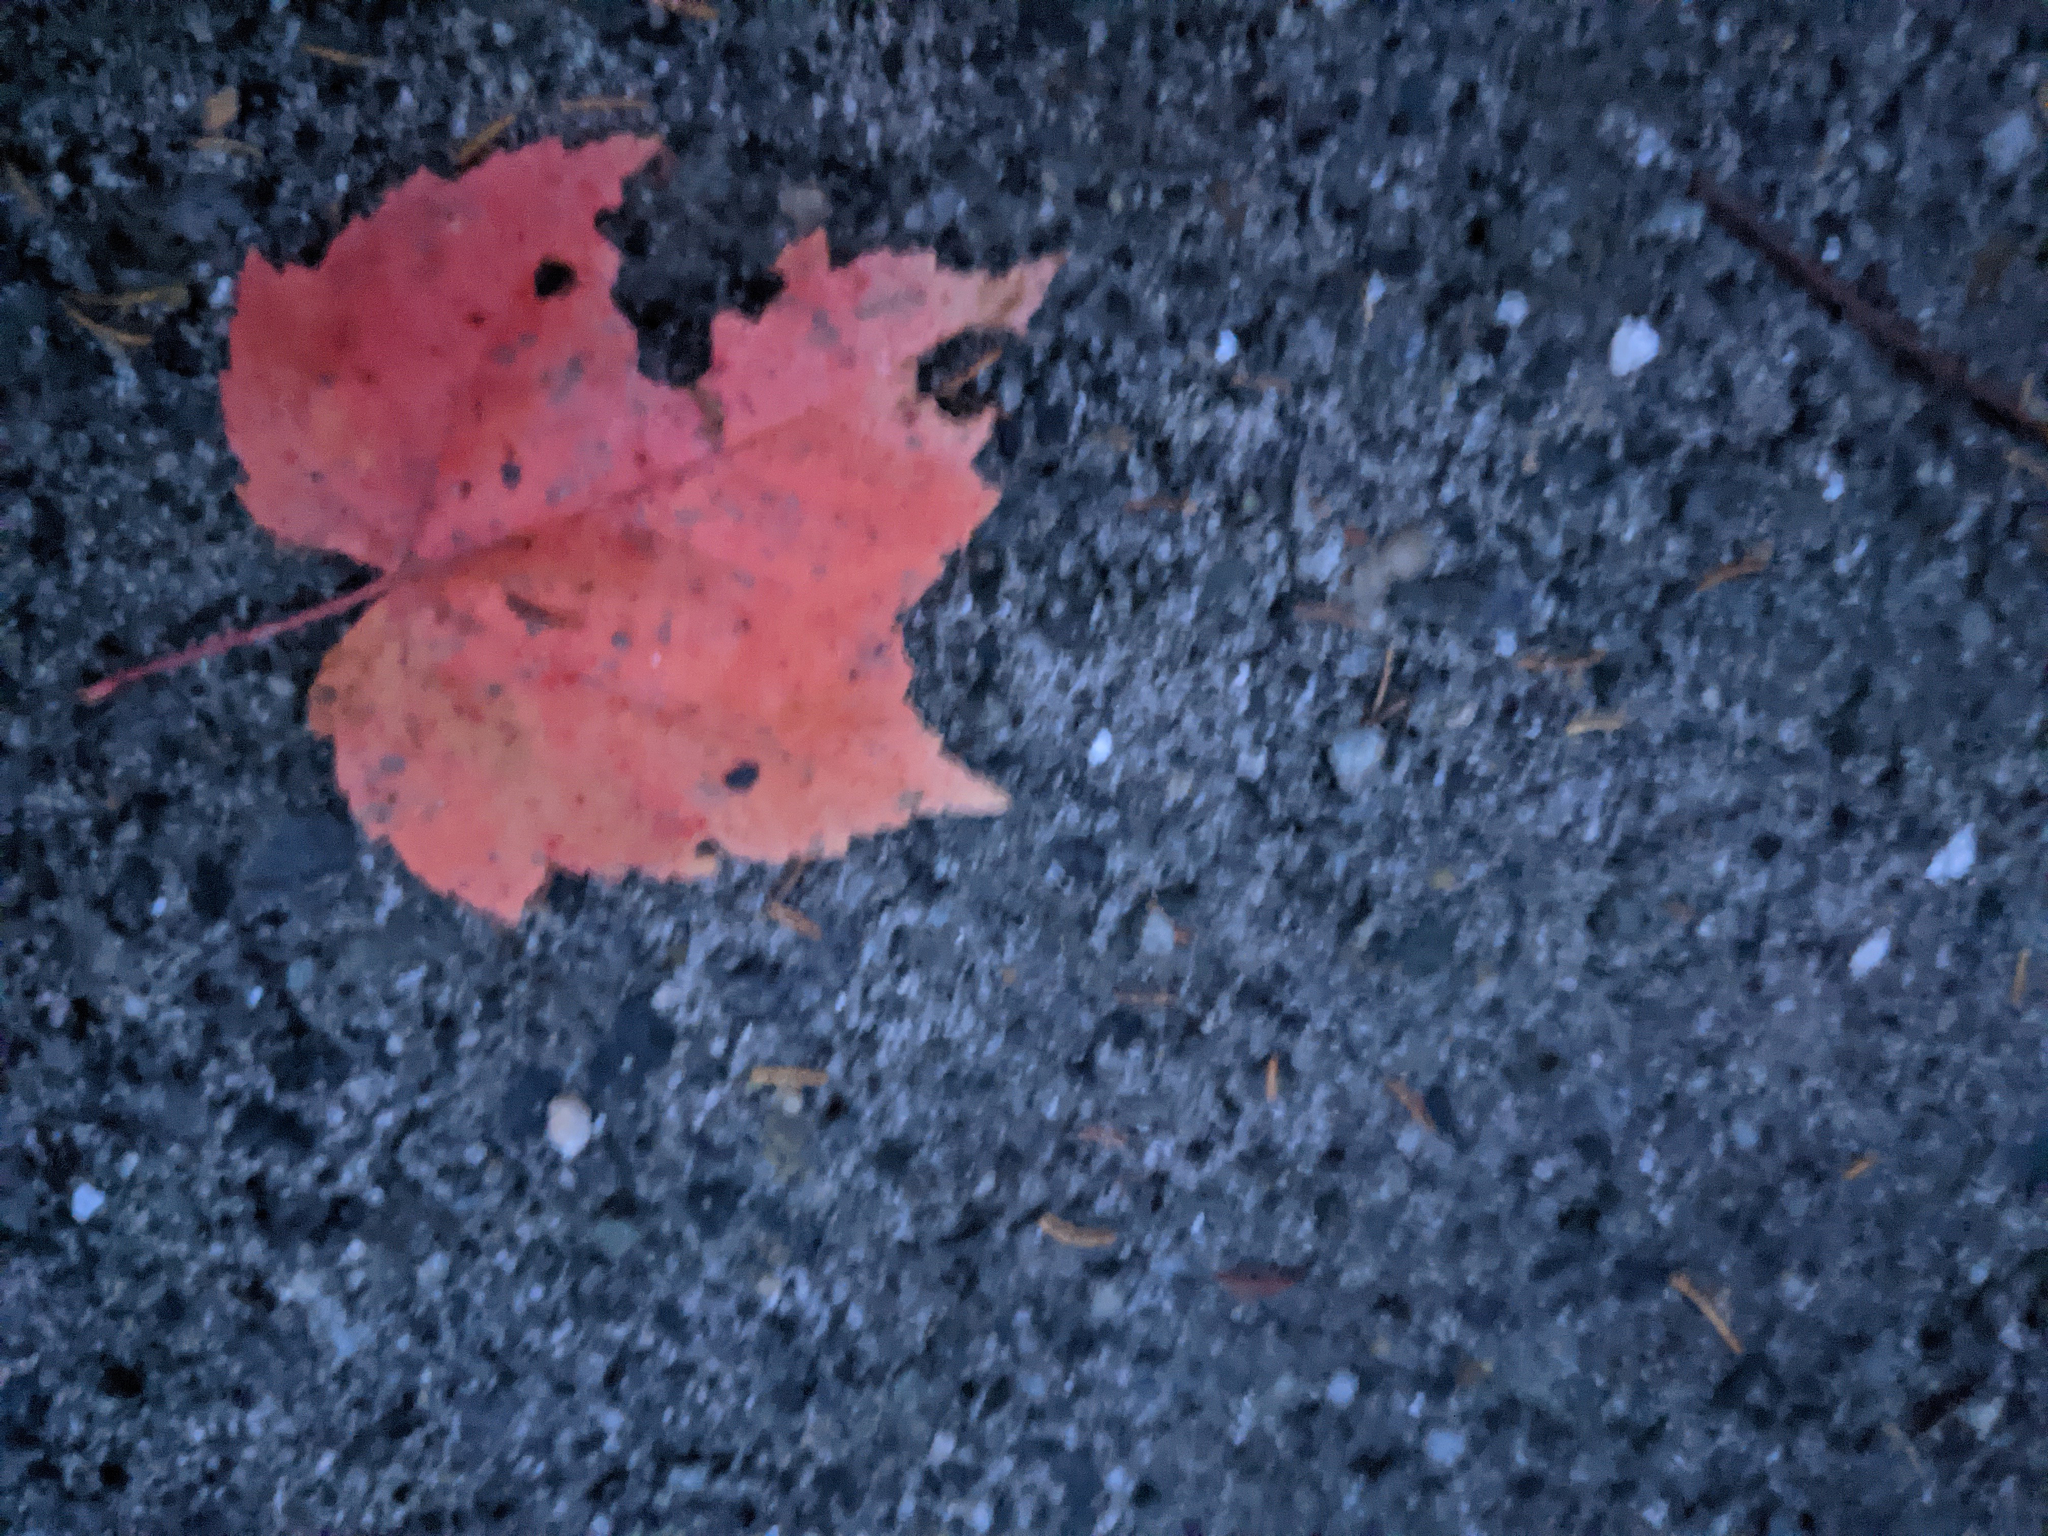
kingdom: Plantae
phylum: Tracheophyta
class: Magnoliopsida
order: Sapindales
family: Sapindaceae
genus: Acer
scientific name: Acer rubrum
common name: Red maple
